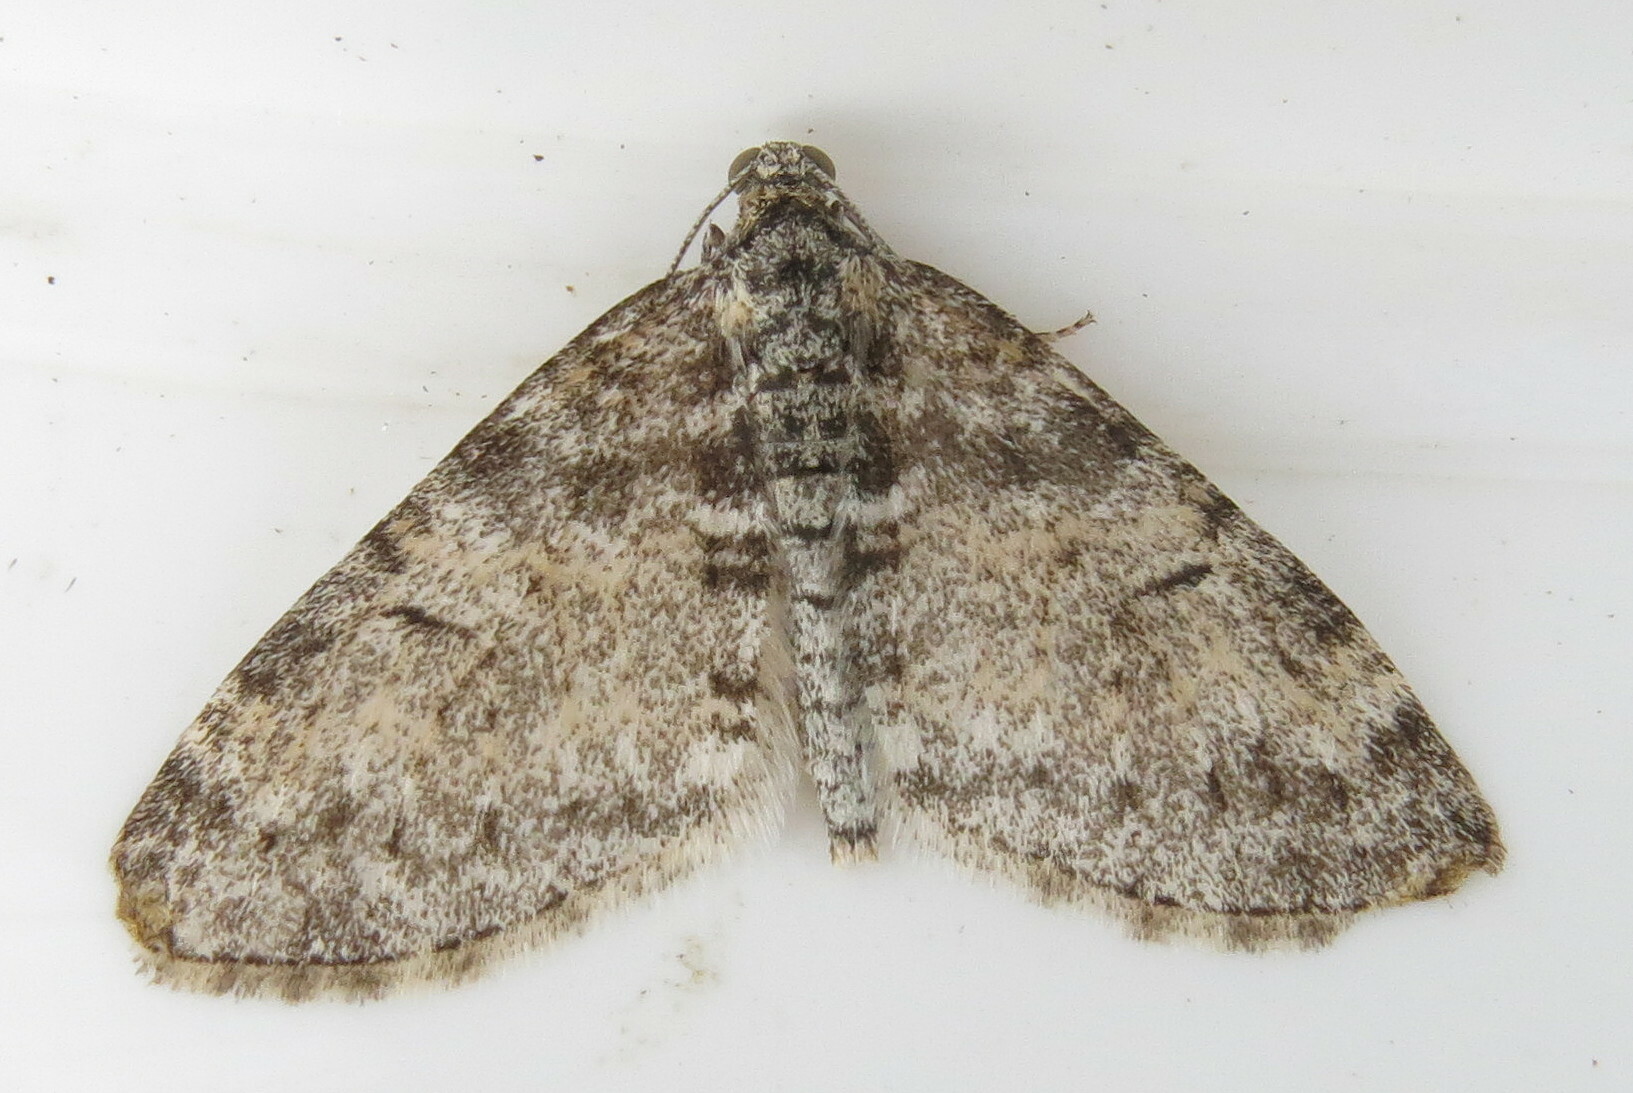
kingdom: Animalia
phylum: Arthropoda
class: Insecta
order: Lepidoptera
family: Geometridae
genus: Lobophora
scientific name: Lobophora halterata
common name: Seraphim
